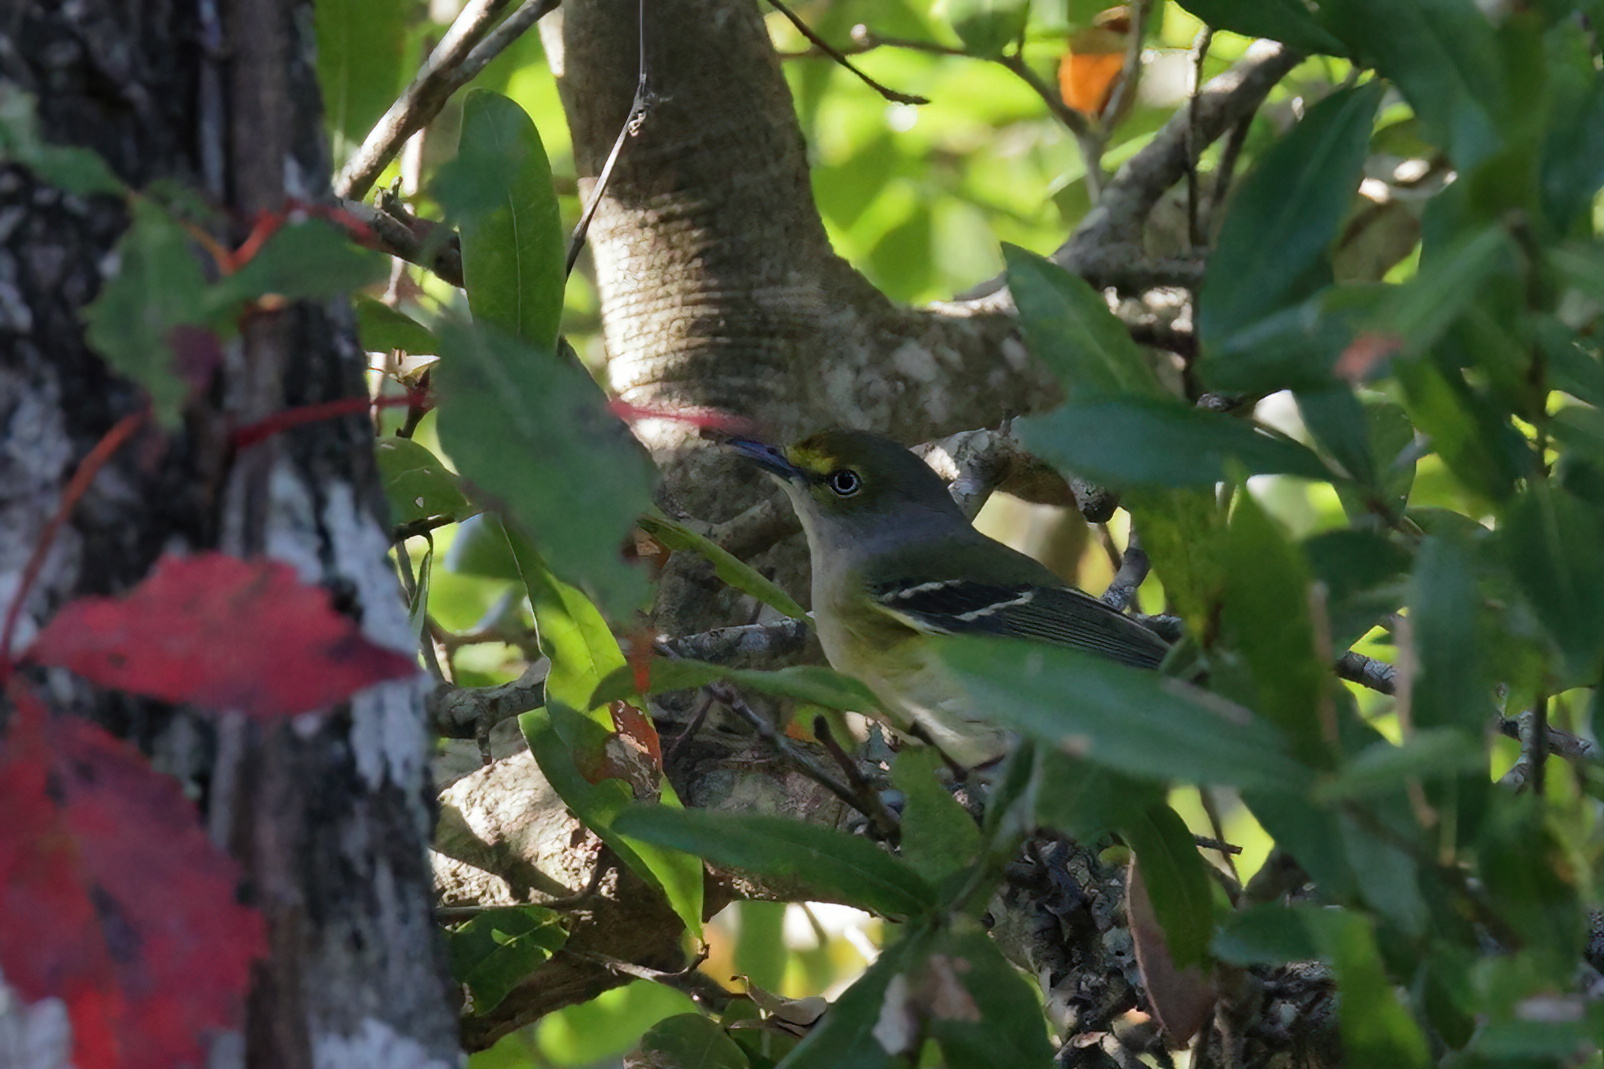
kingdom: Animalia
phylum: Chordata
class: Aves
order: Passeriformes
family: Vireonidae
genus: Vireo
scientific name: Vireo griseus
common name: White-eyed vireo
